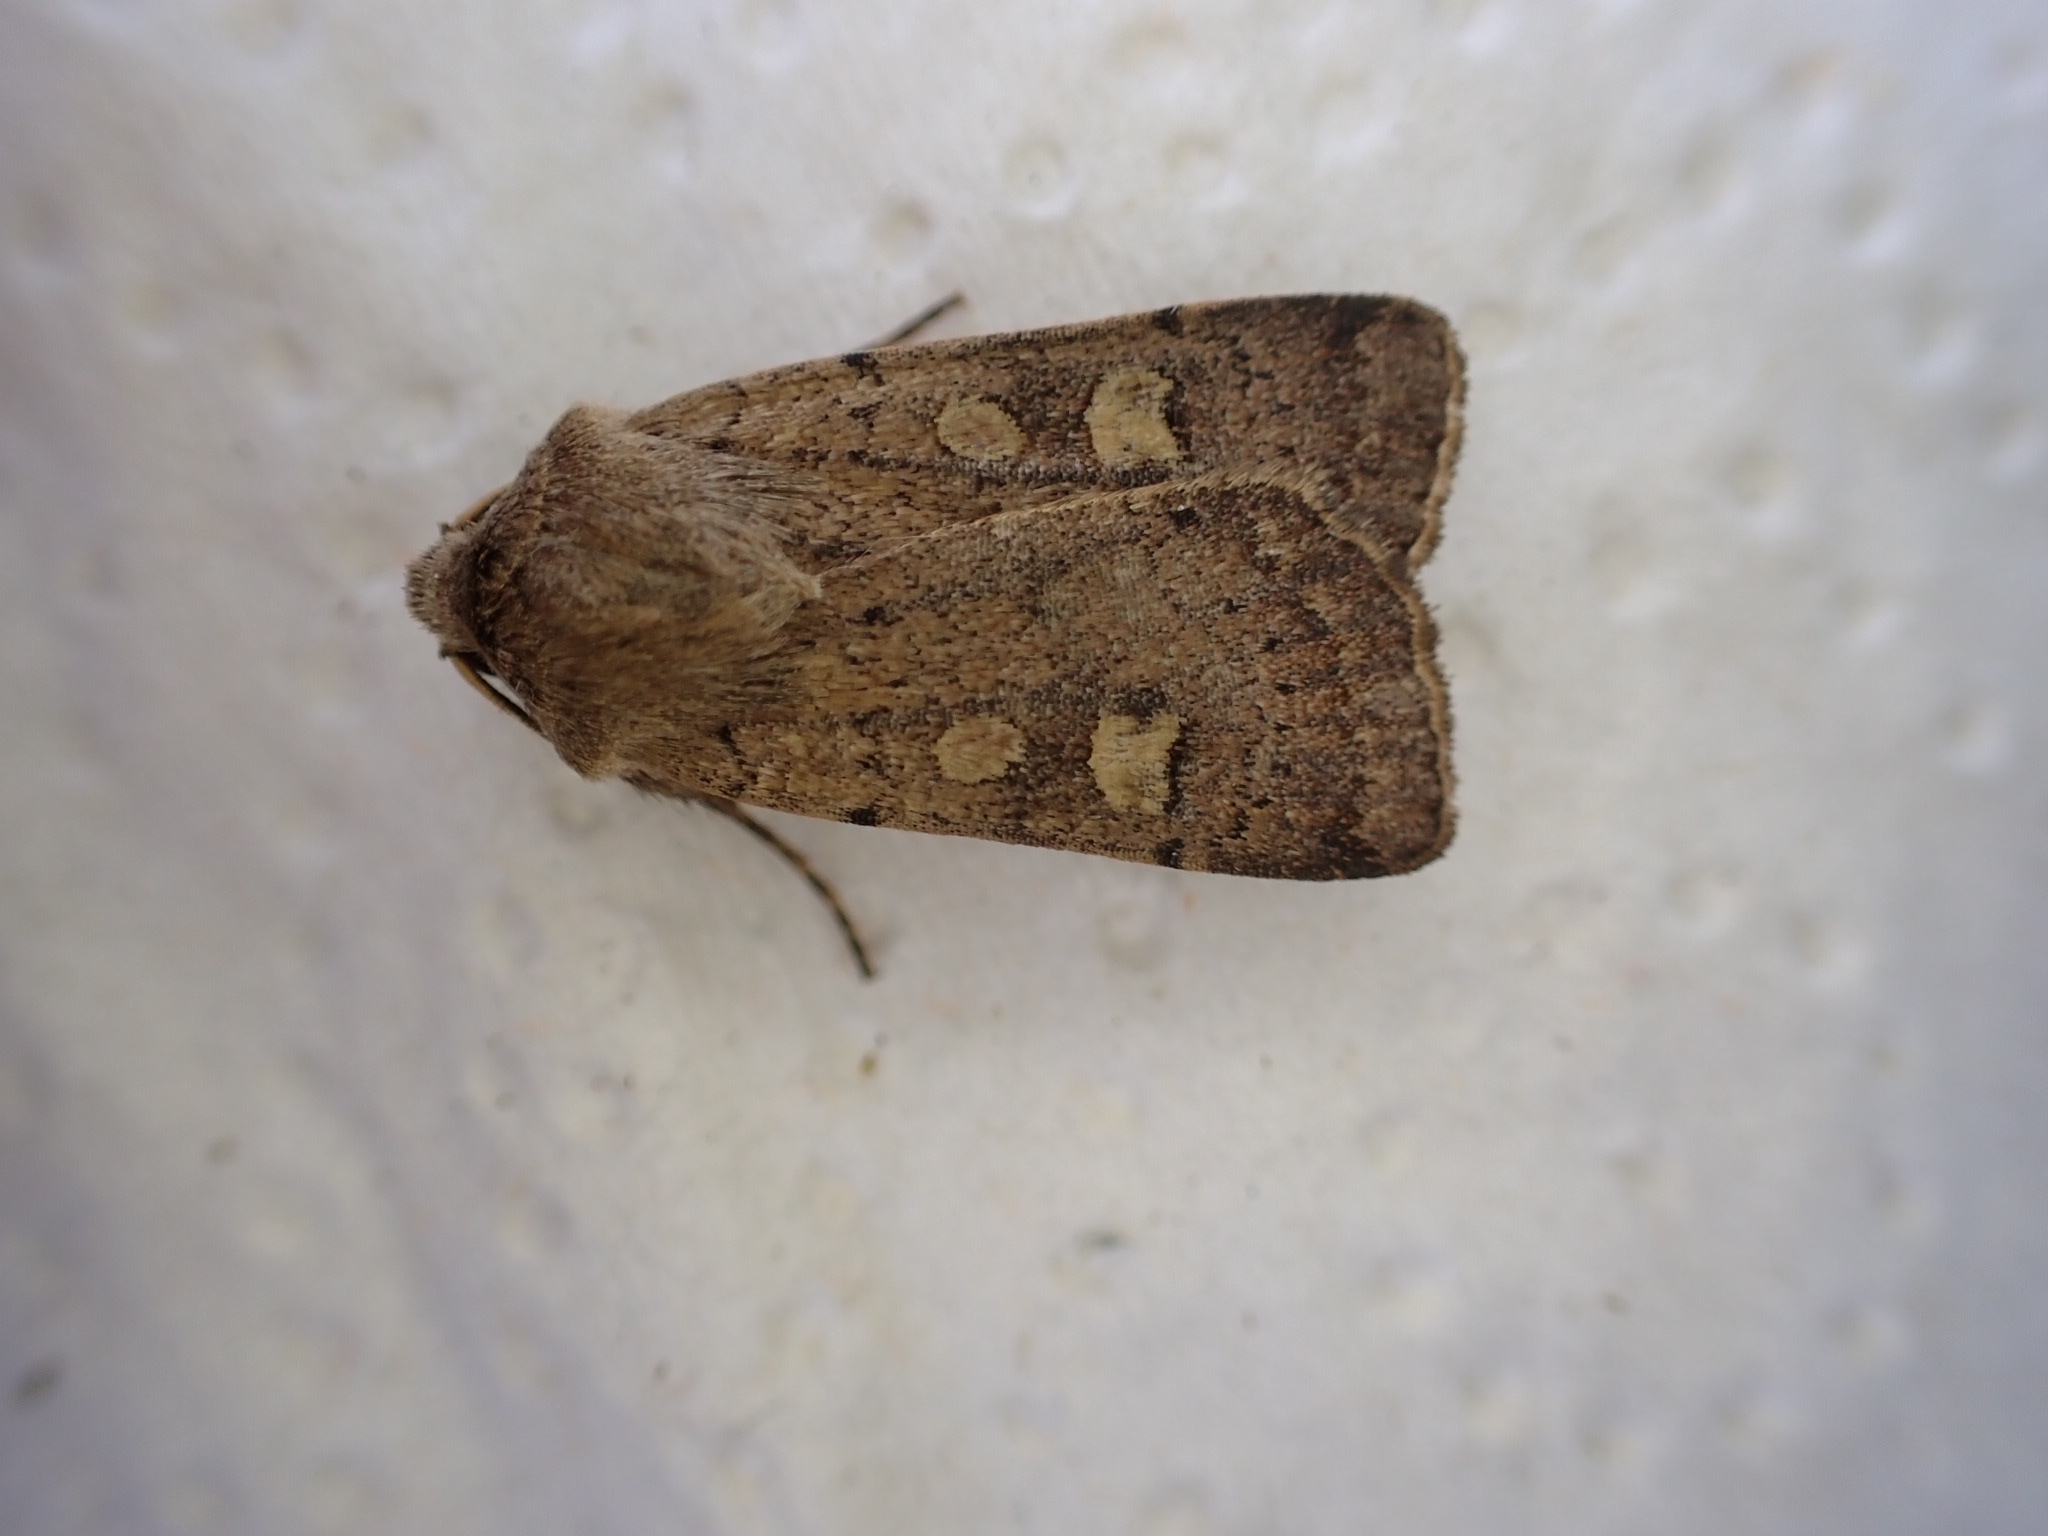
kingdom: Animalia
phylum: Arthropoda
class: Insecta
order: Lepidoptera
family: Noctuidae
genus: Xestia
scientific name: Xestia xanthographa
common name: Square-spot rustic
